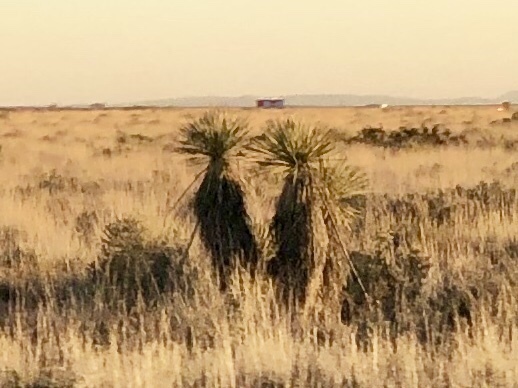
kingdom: Plantae
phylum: Tracheophyta
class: Liliopsida
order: Asparagales
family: Asparagaceae
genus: Yucca
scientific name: Yucca elata
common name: Palmella
